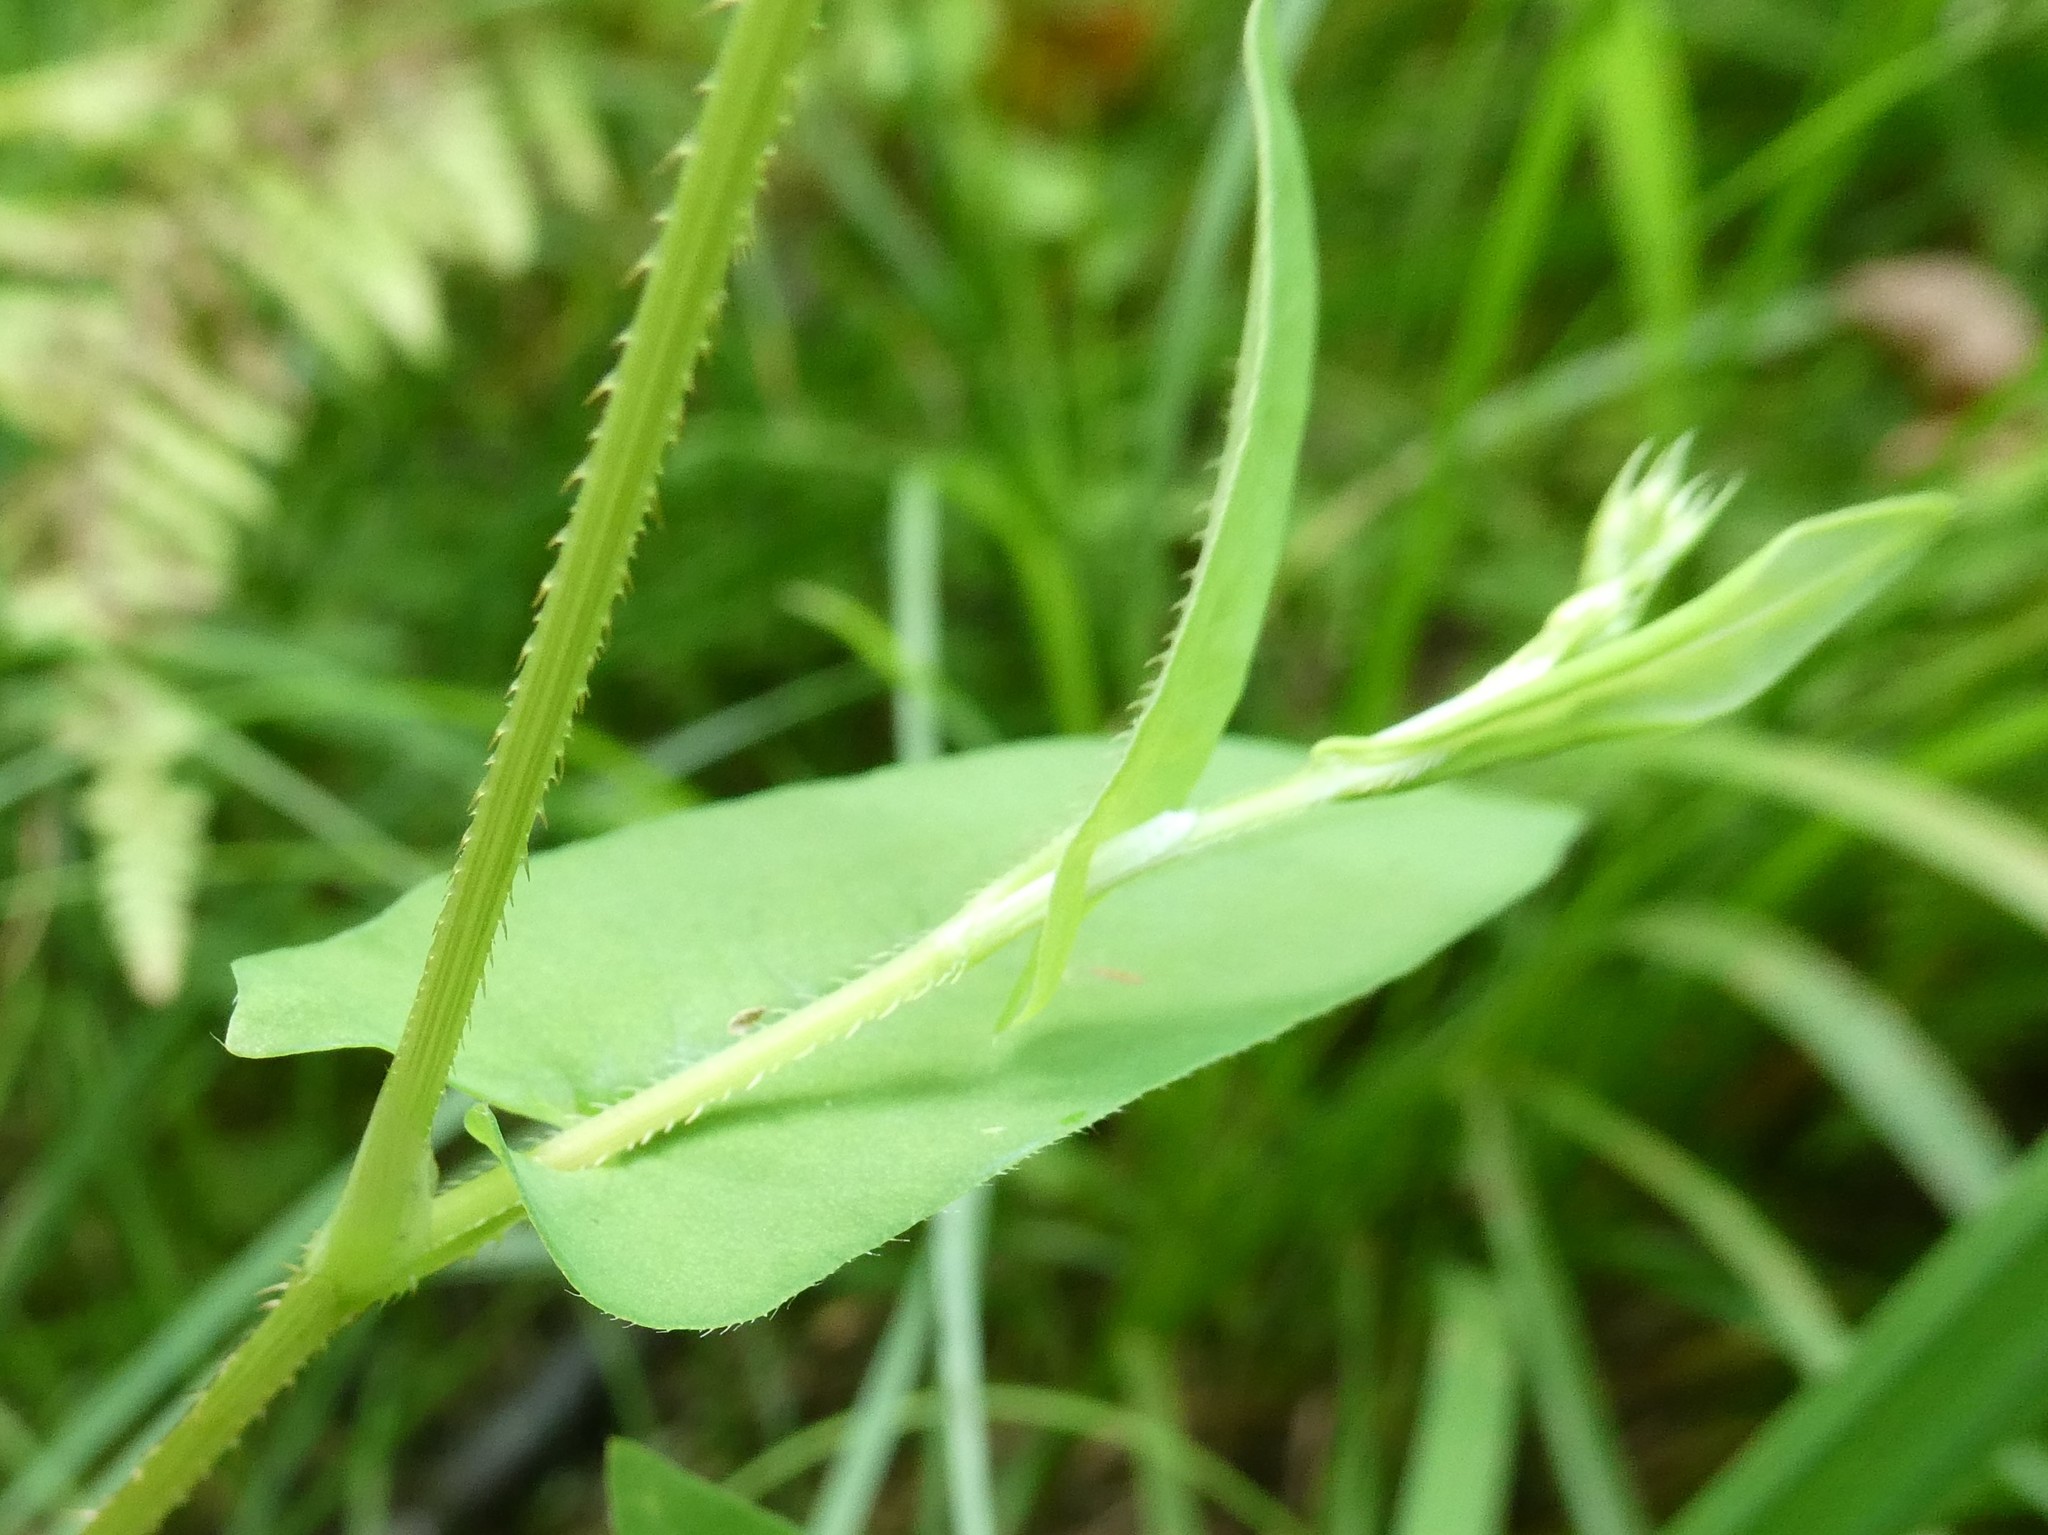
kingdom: Plantae
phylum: Tracheophyta
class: Magnoliopsida
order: Caryophyllales
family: Polygonaceae
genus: Persicaria
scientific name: Persicaria sagittata
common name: American tearthumb
